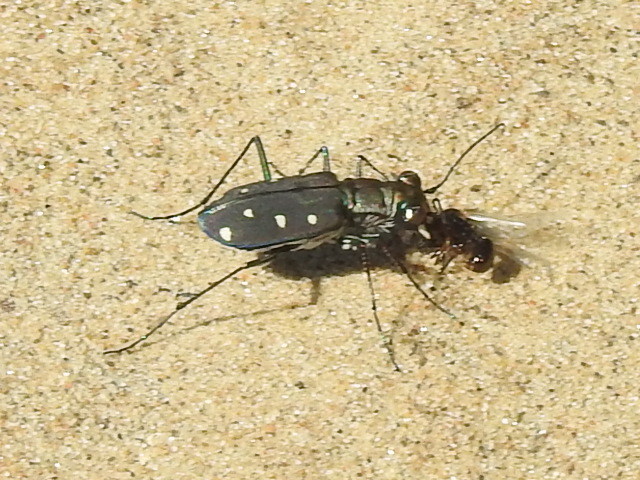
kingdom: Animalia
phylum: Arthropoda
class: Insecta
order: Coleoptera
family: Carabidae
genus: Cicindela
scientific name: Cicindela ocellata
